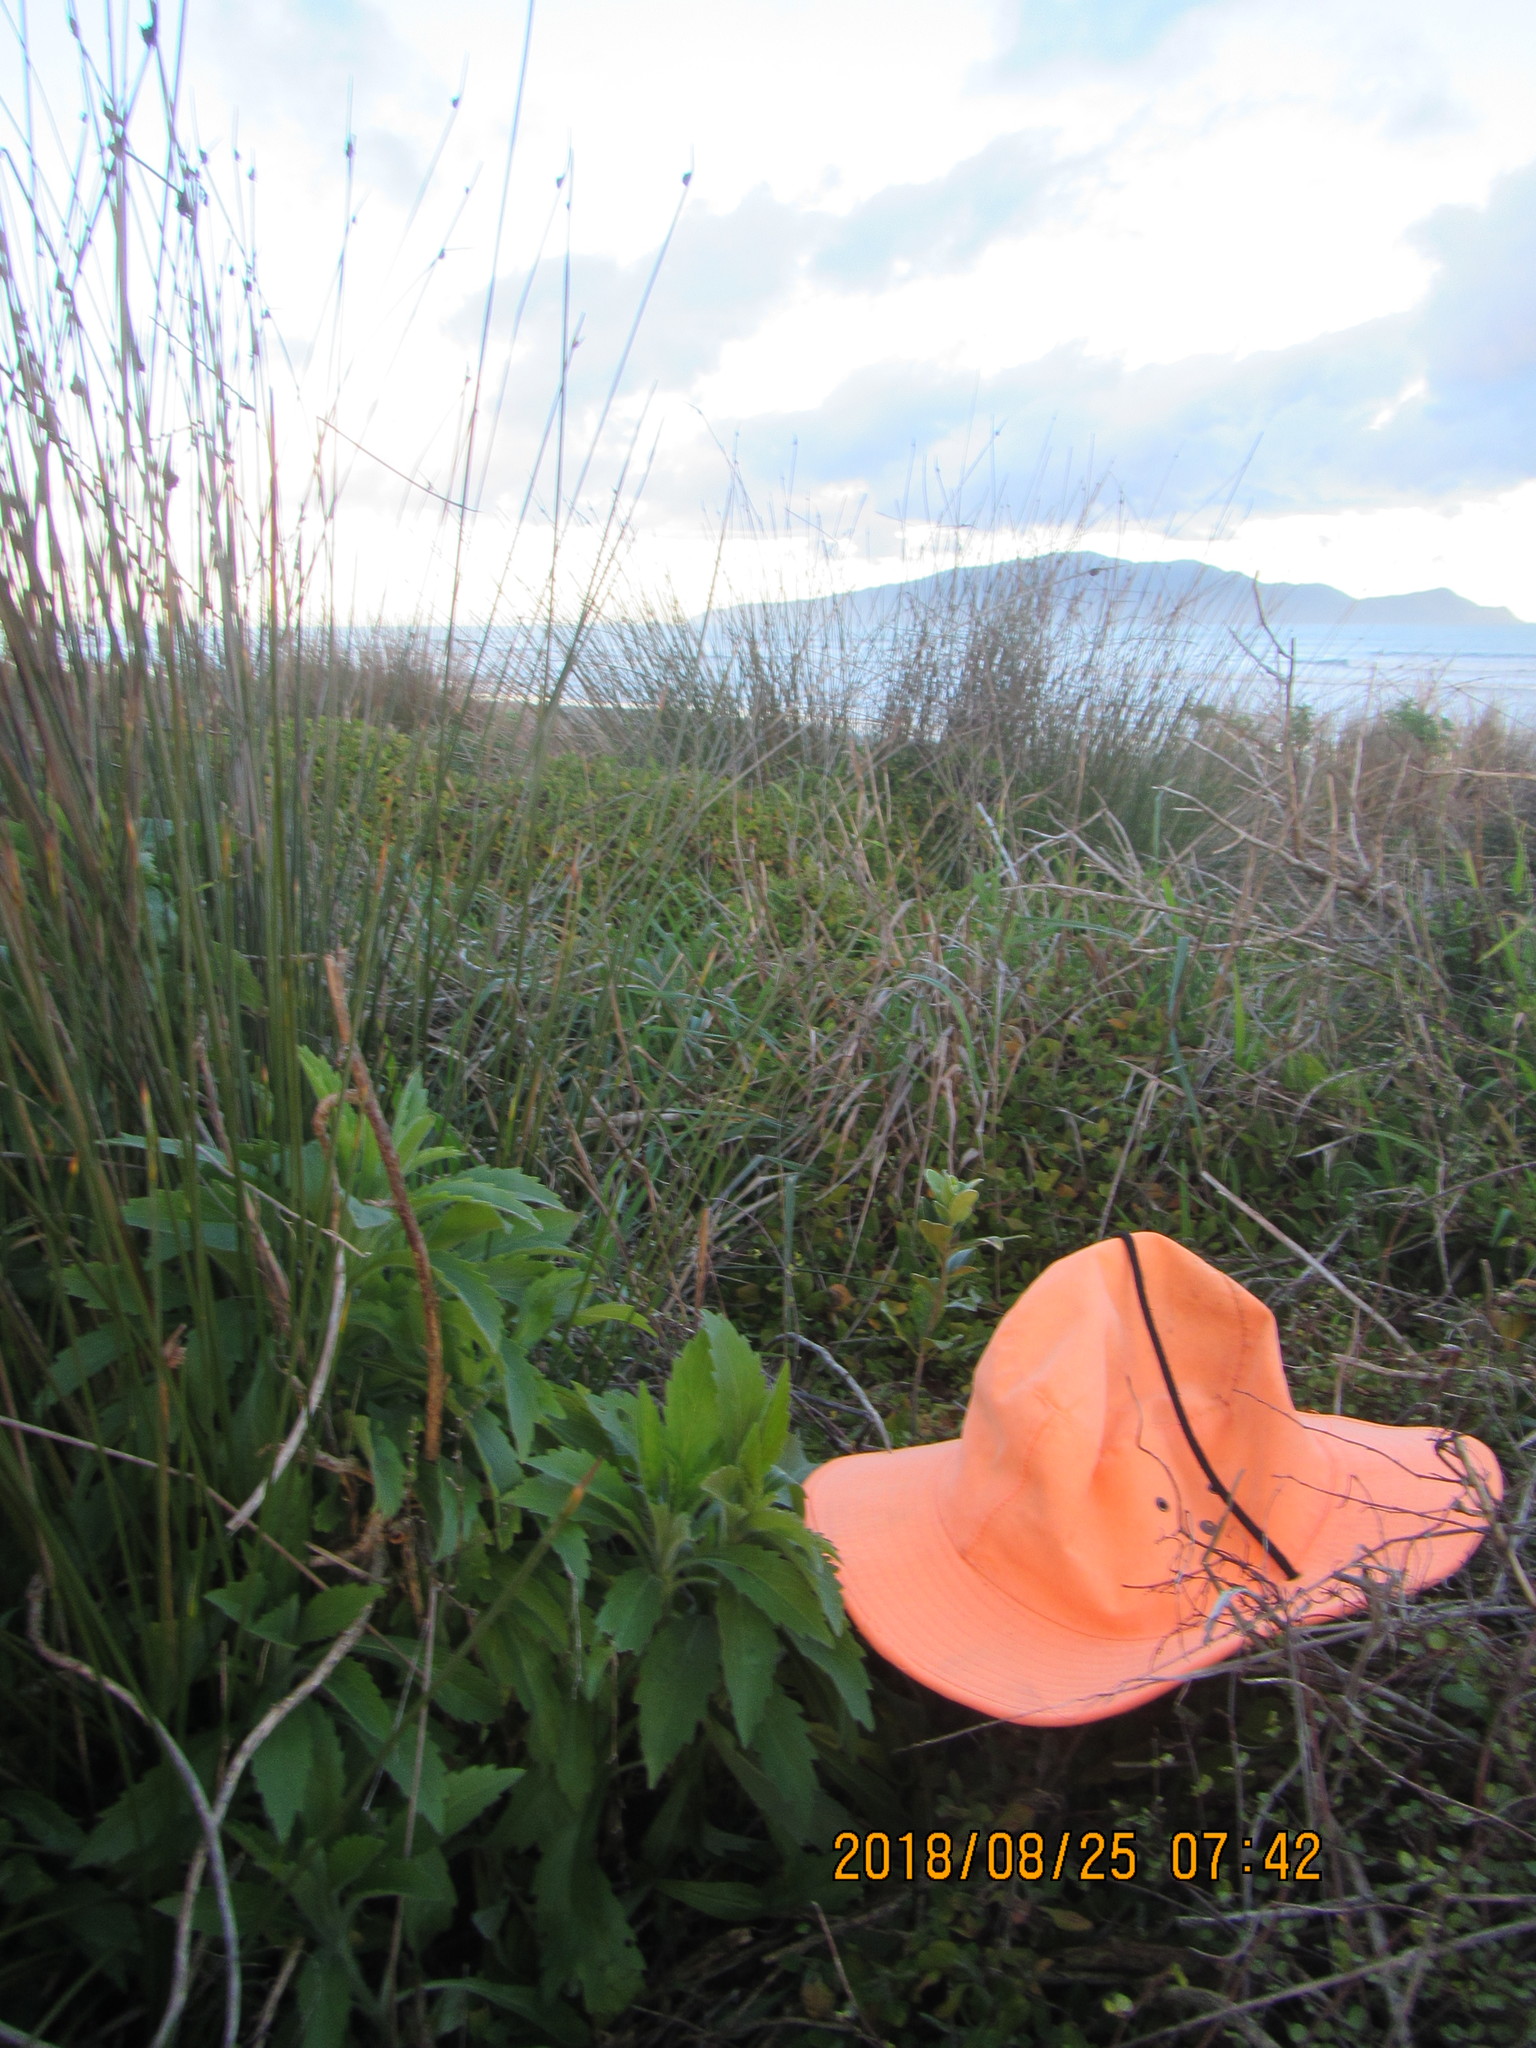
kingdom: Plantae
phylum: Tracheophyta
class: Magnoliopsida
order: Apiales
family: Pittosporaceae
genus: Pittosporum
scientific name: Pittosporum crassifolium
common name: Karo
